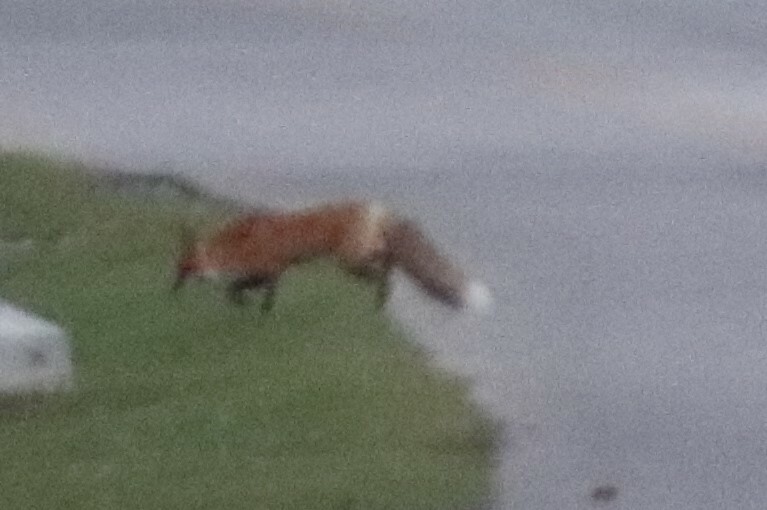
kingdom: Animalia
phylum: Chordata
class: Mammalia
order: Carnivora
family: Canidae
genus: Vulpes
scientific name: Vulpes vulpes
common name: Red fox
